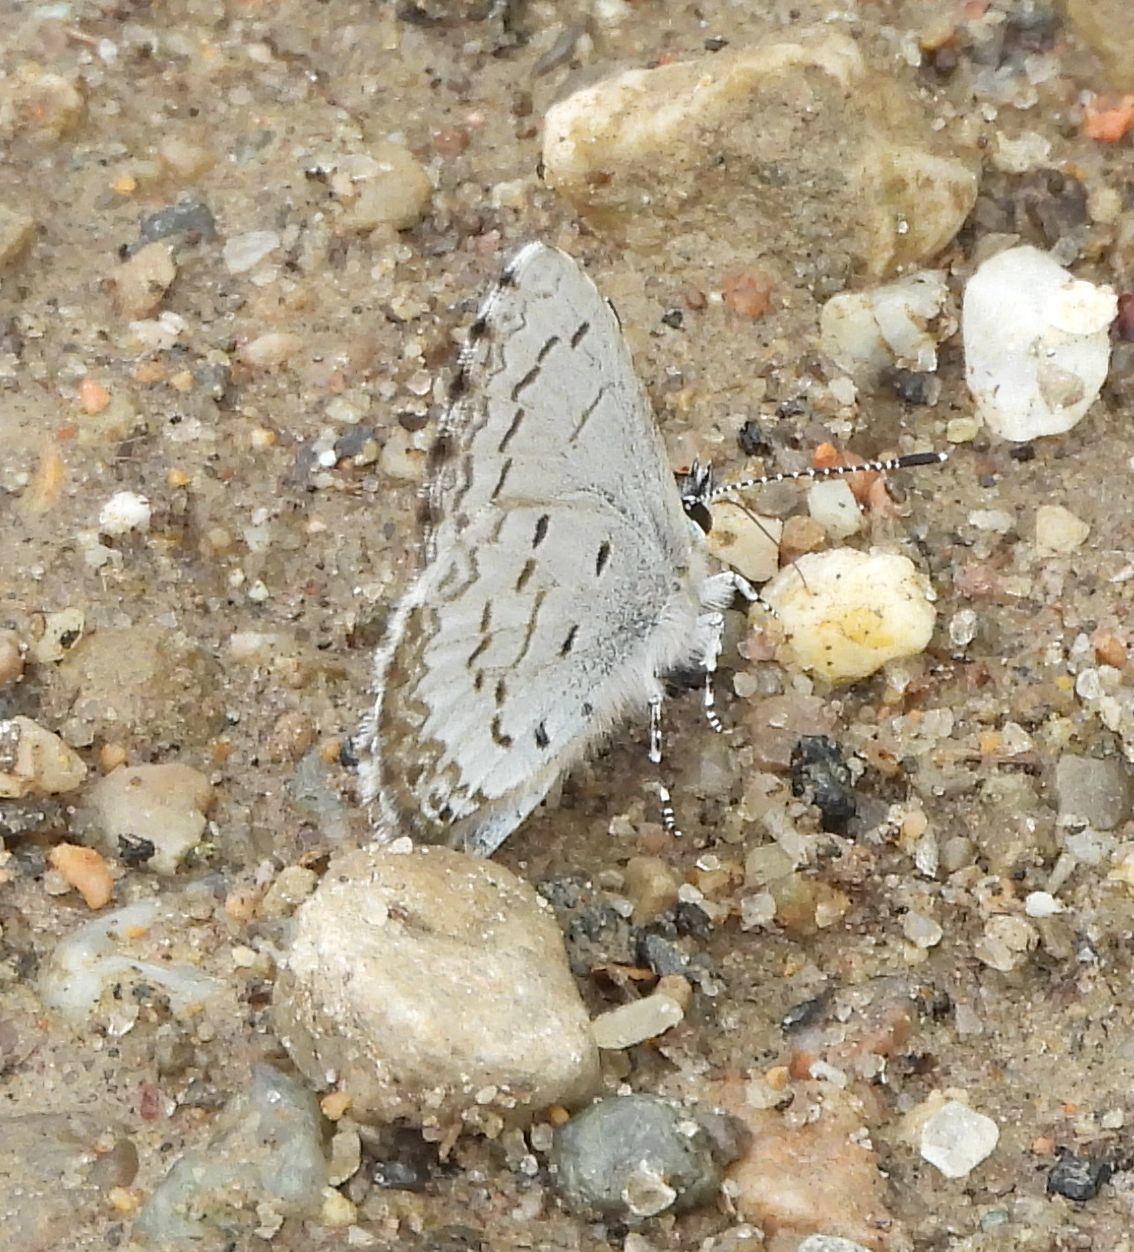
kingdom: Animalia
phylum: Arthropoda
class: Insecta
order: Lepidoptera
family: Lycaenidae
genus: Celastrina
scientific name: Celastrina lucia
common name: Lucia azure
